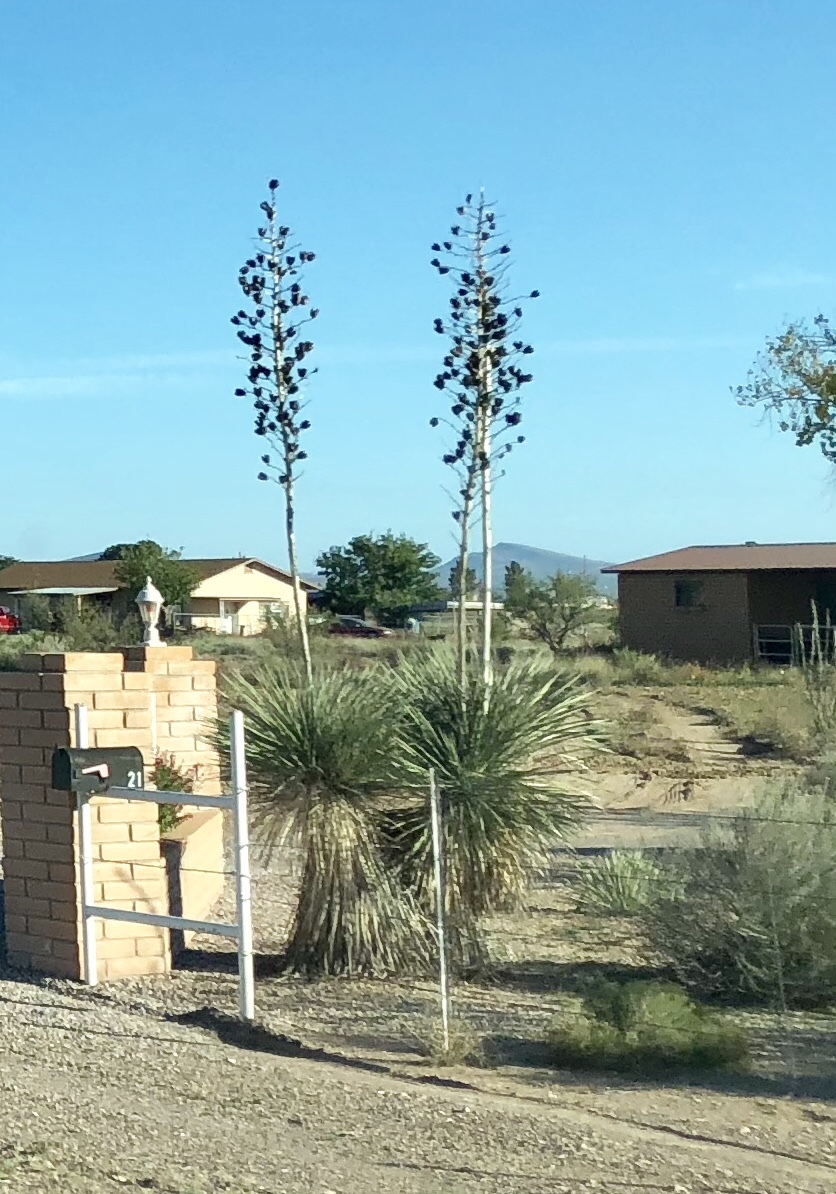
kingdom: Plantae
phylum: Tracheophyta
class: Liliopsida
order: Asparagales
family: Asparagaceae
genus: Yucca
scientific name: Yucca elata
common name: Palmella
